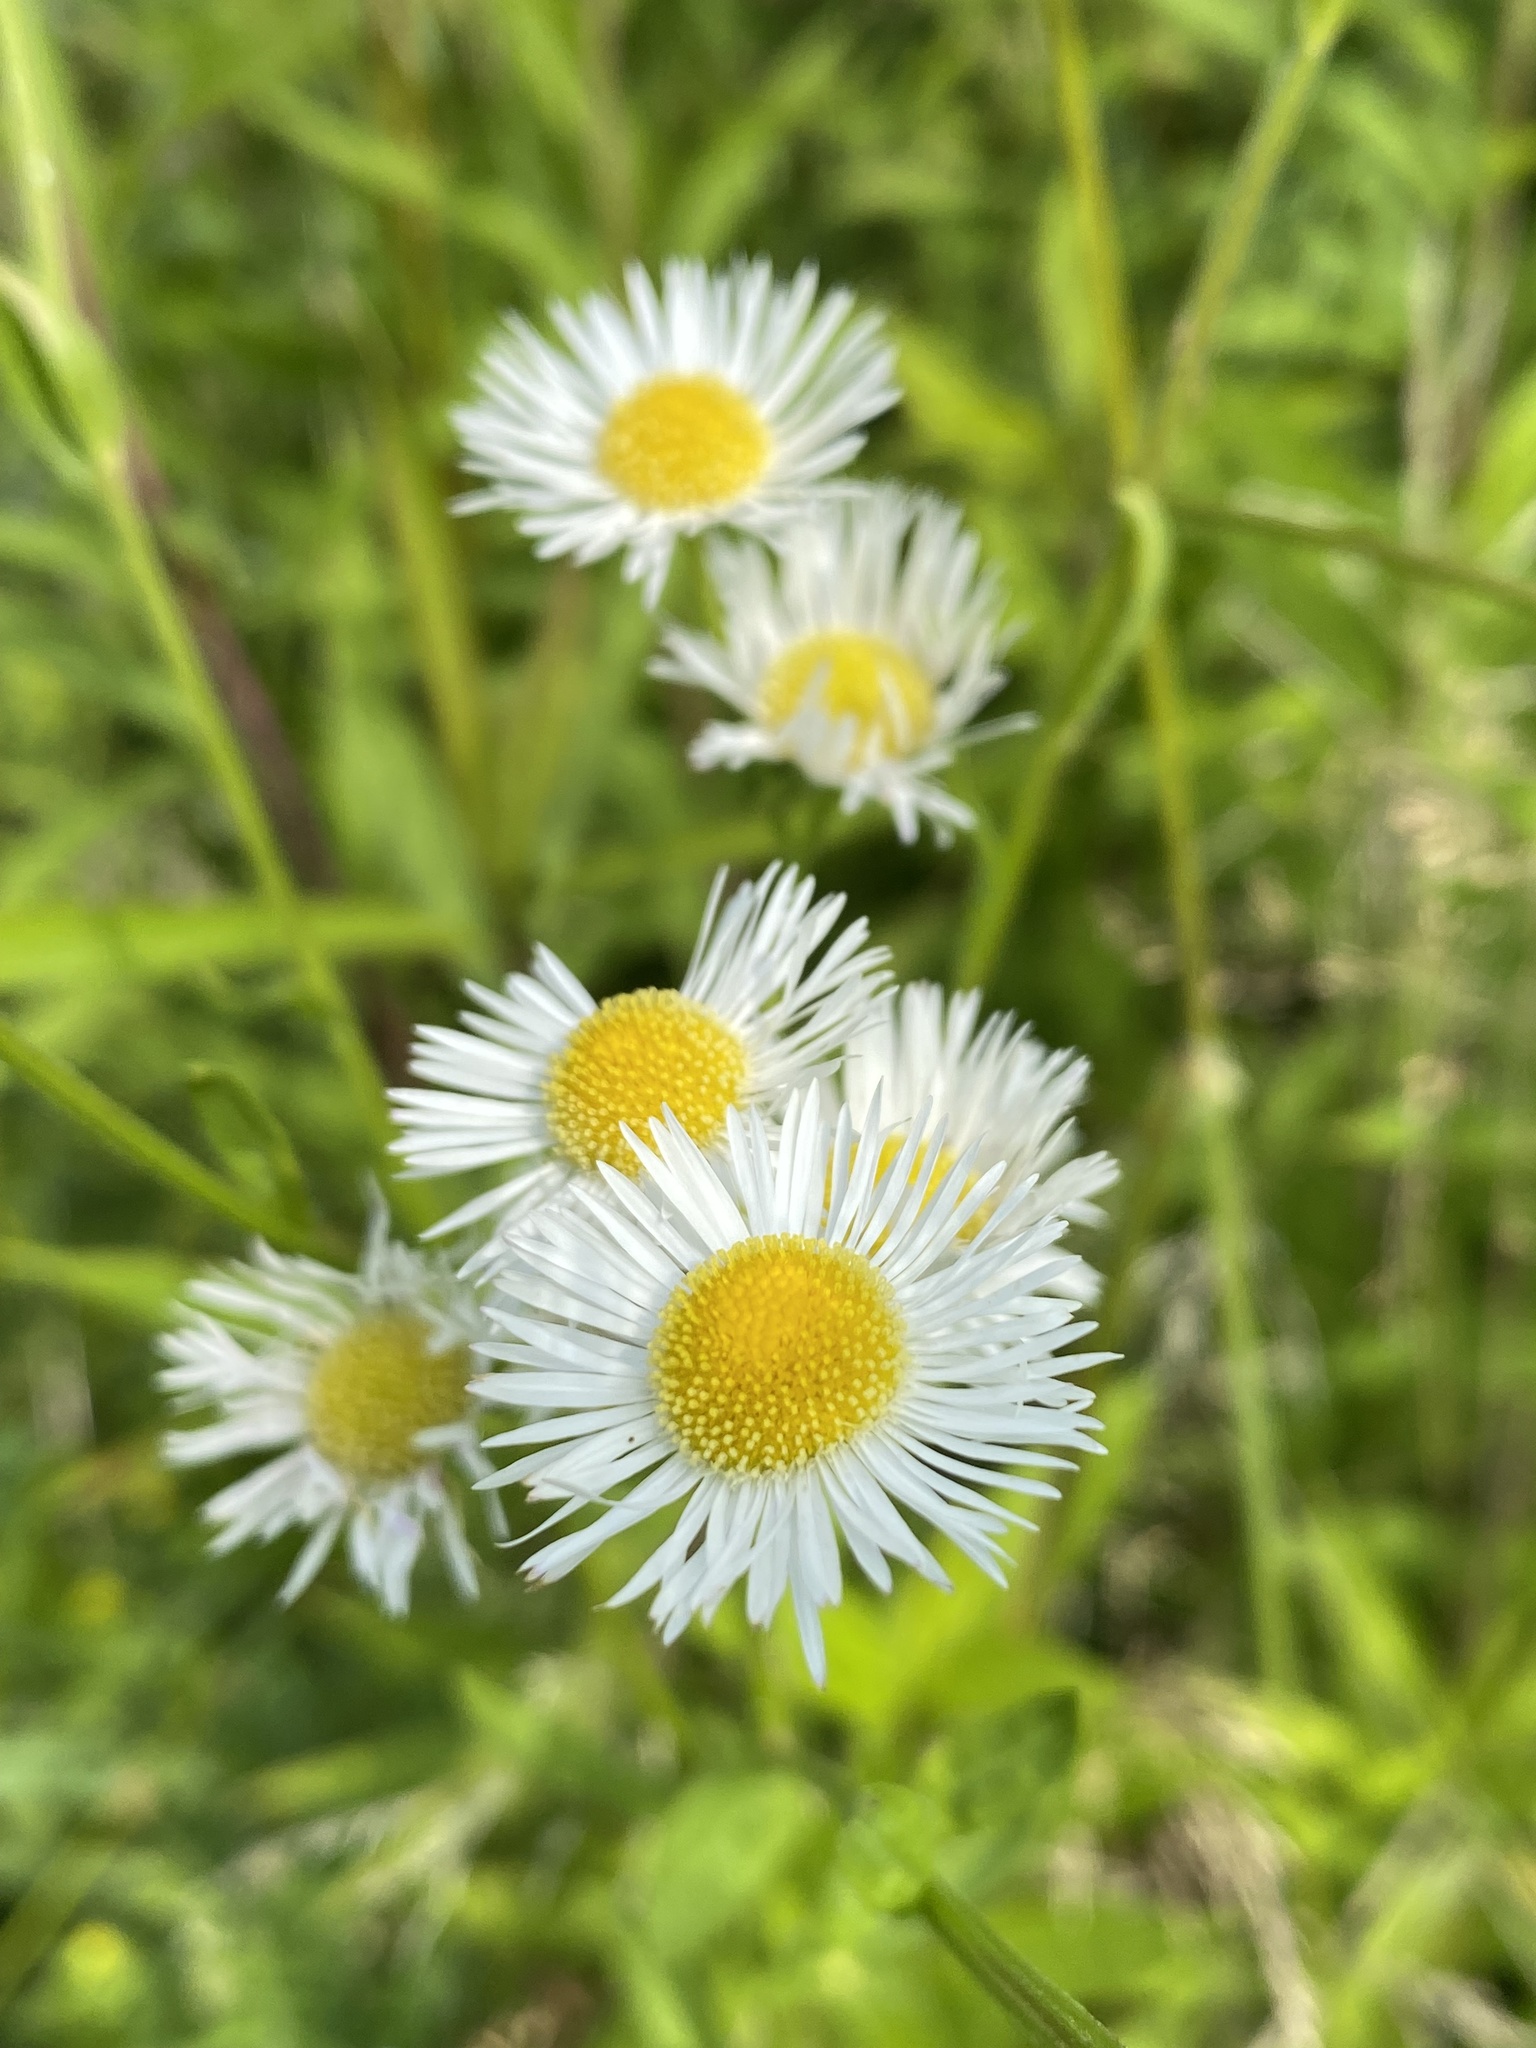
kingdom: Plantae
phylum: Tracheophyta
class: Magnoliopsida
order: Asterales
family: Asteraceae
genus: Erigeron
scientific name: Erigeron annuus
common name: Tall fleabane
